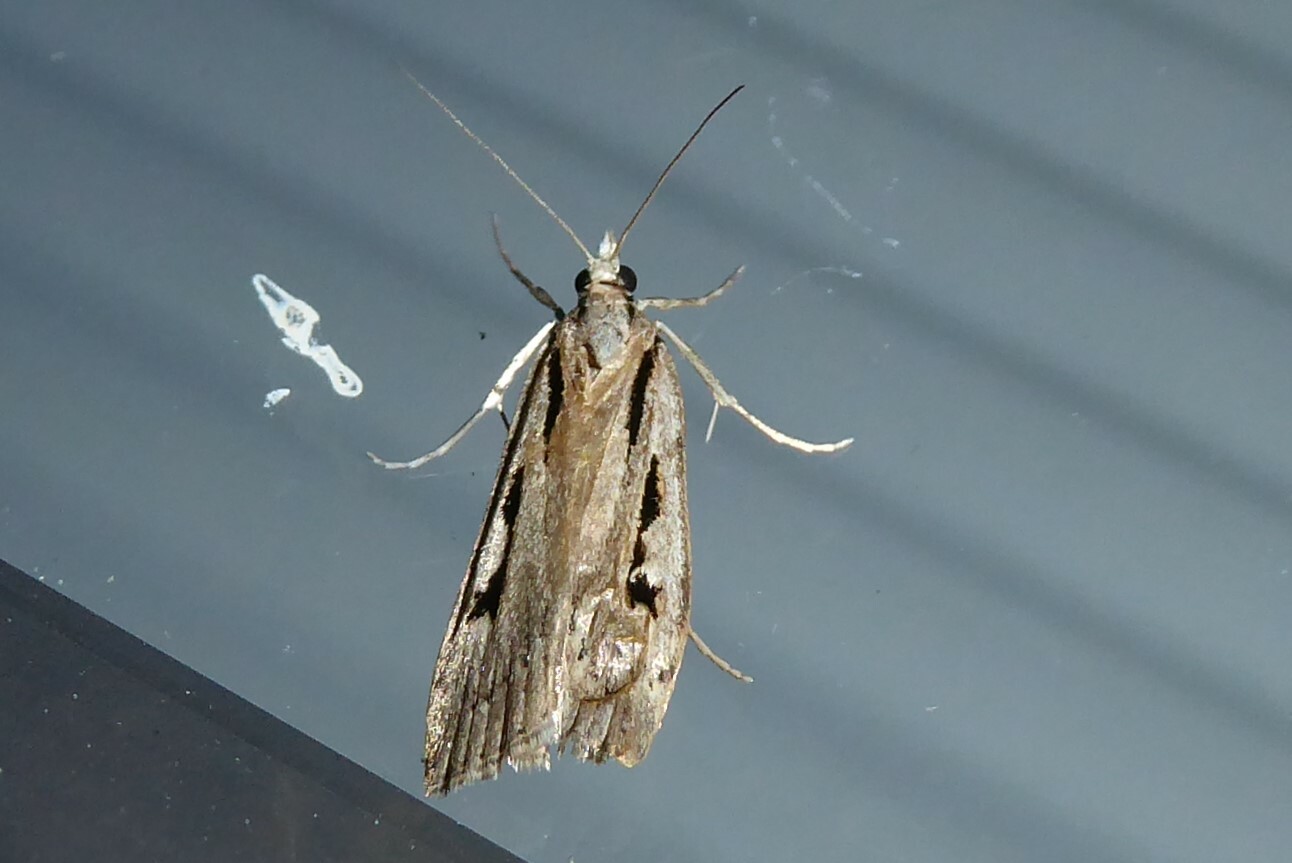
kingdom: Animalia
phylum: Arthropoda
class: Insecta
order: Lepidoptera
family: Crambidae
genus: Scoparia
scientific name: Scoparia rotuellus
